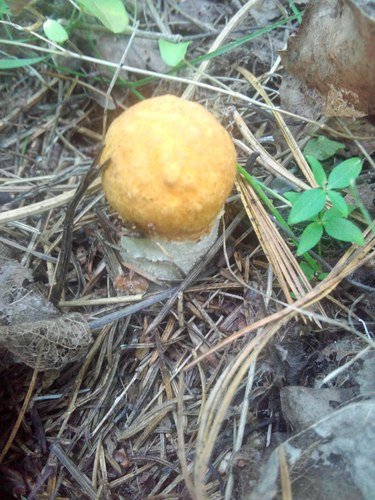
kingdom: Fungi
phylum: Basidiomycota
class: Agaricomycetes
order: Boletales
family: Boletaceae
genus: Leccinum
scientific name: Leccinum albostipitatum
